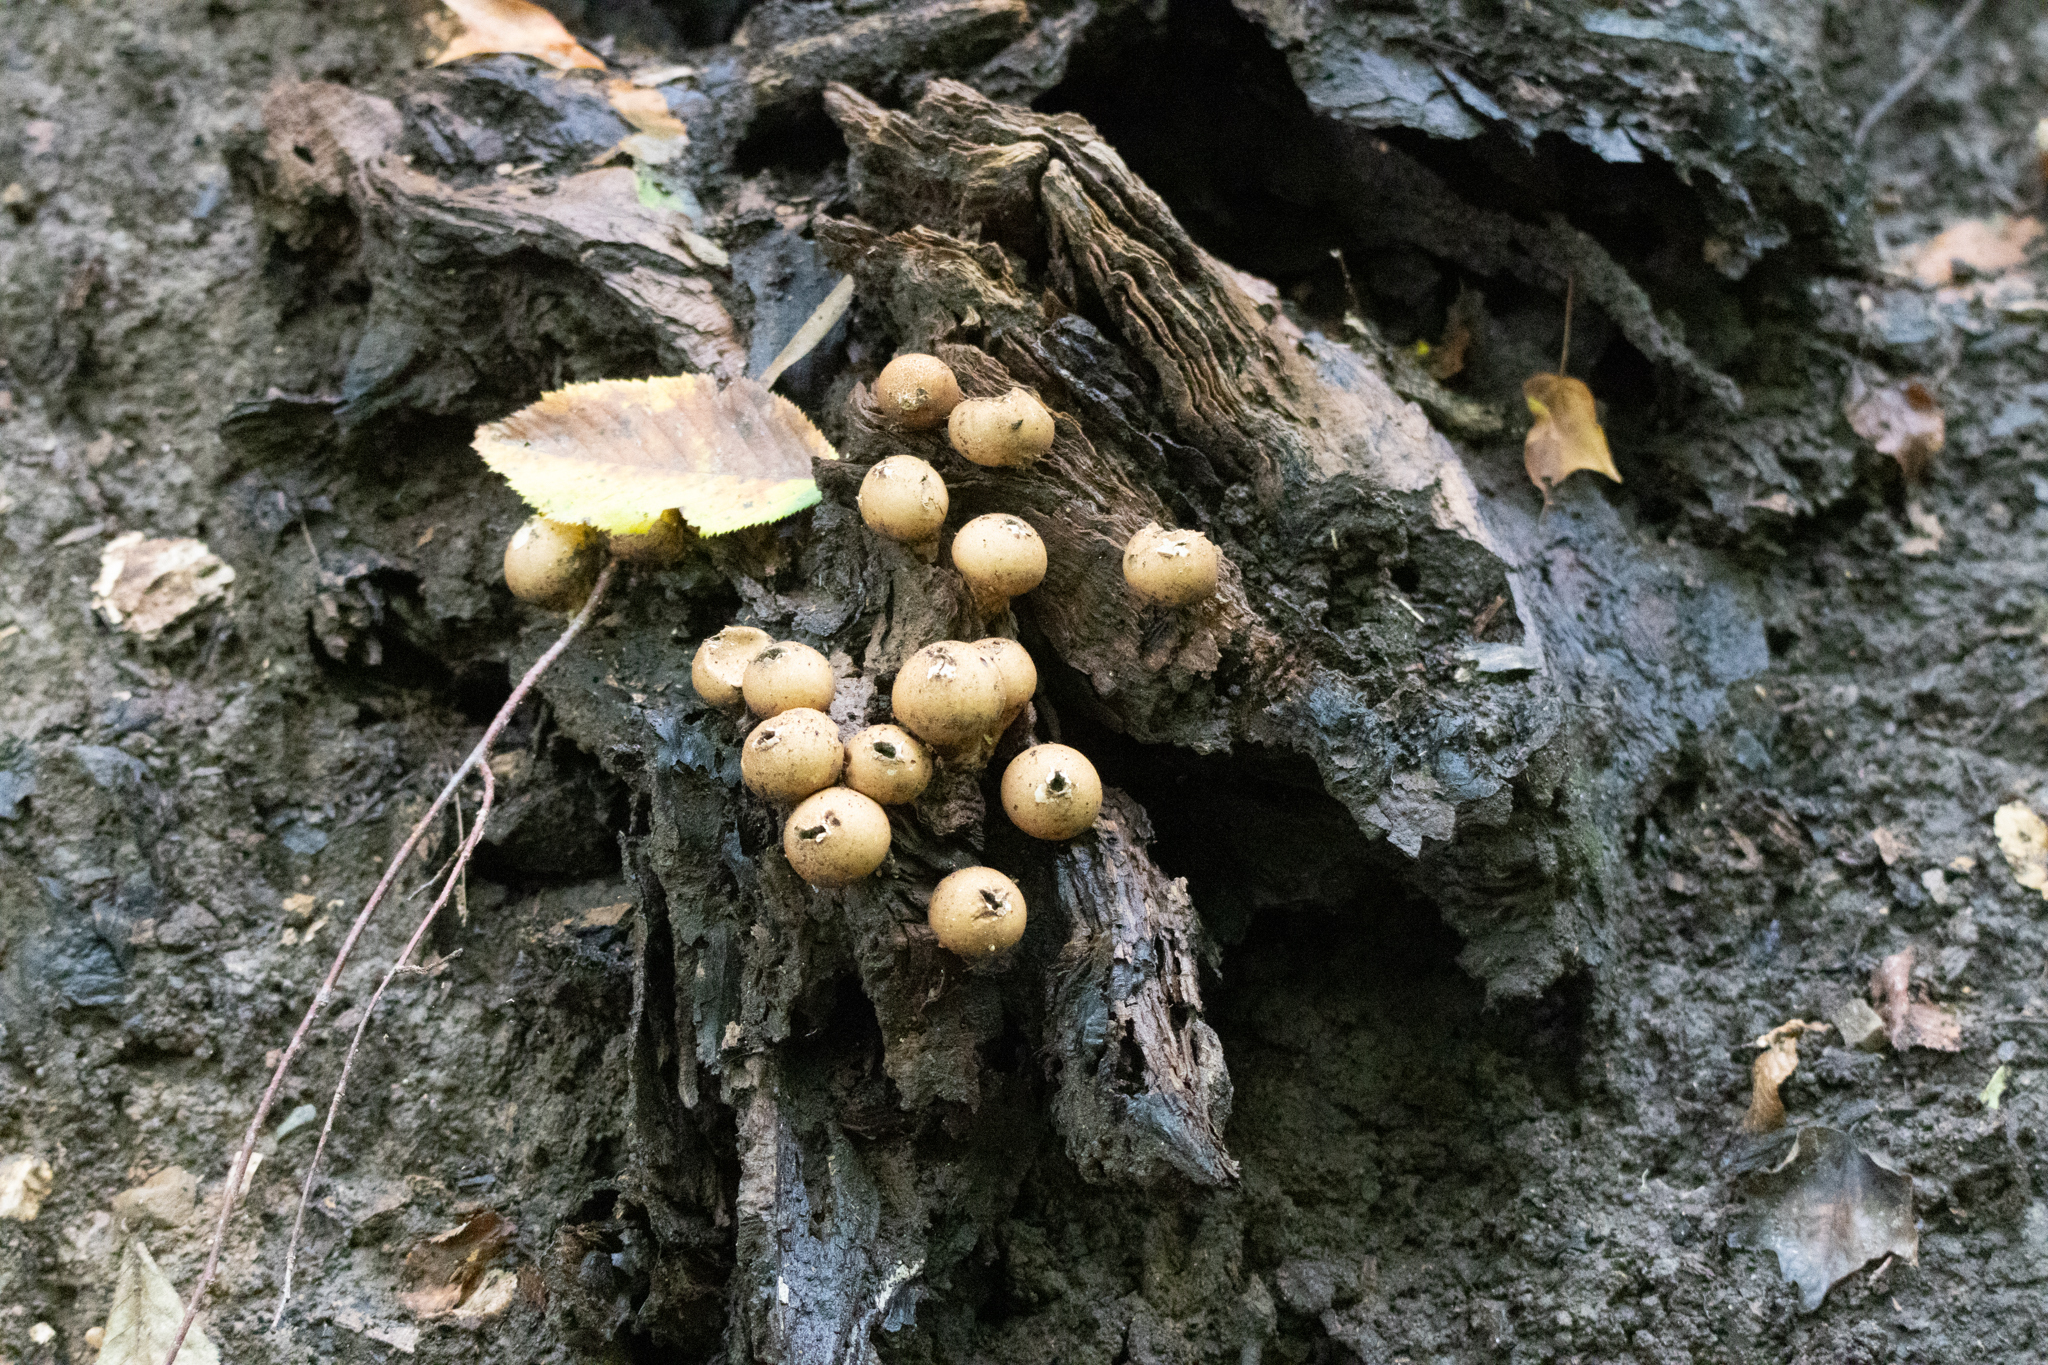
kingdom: Fungi
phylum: Basidiomycota
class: Agaricomycetes
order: Agaricales
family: Lycoperdaceae
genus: Apioperdon
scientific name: Apioperdon pyriforme
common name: Pear-shaped puffball
